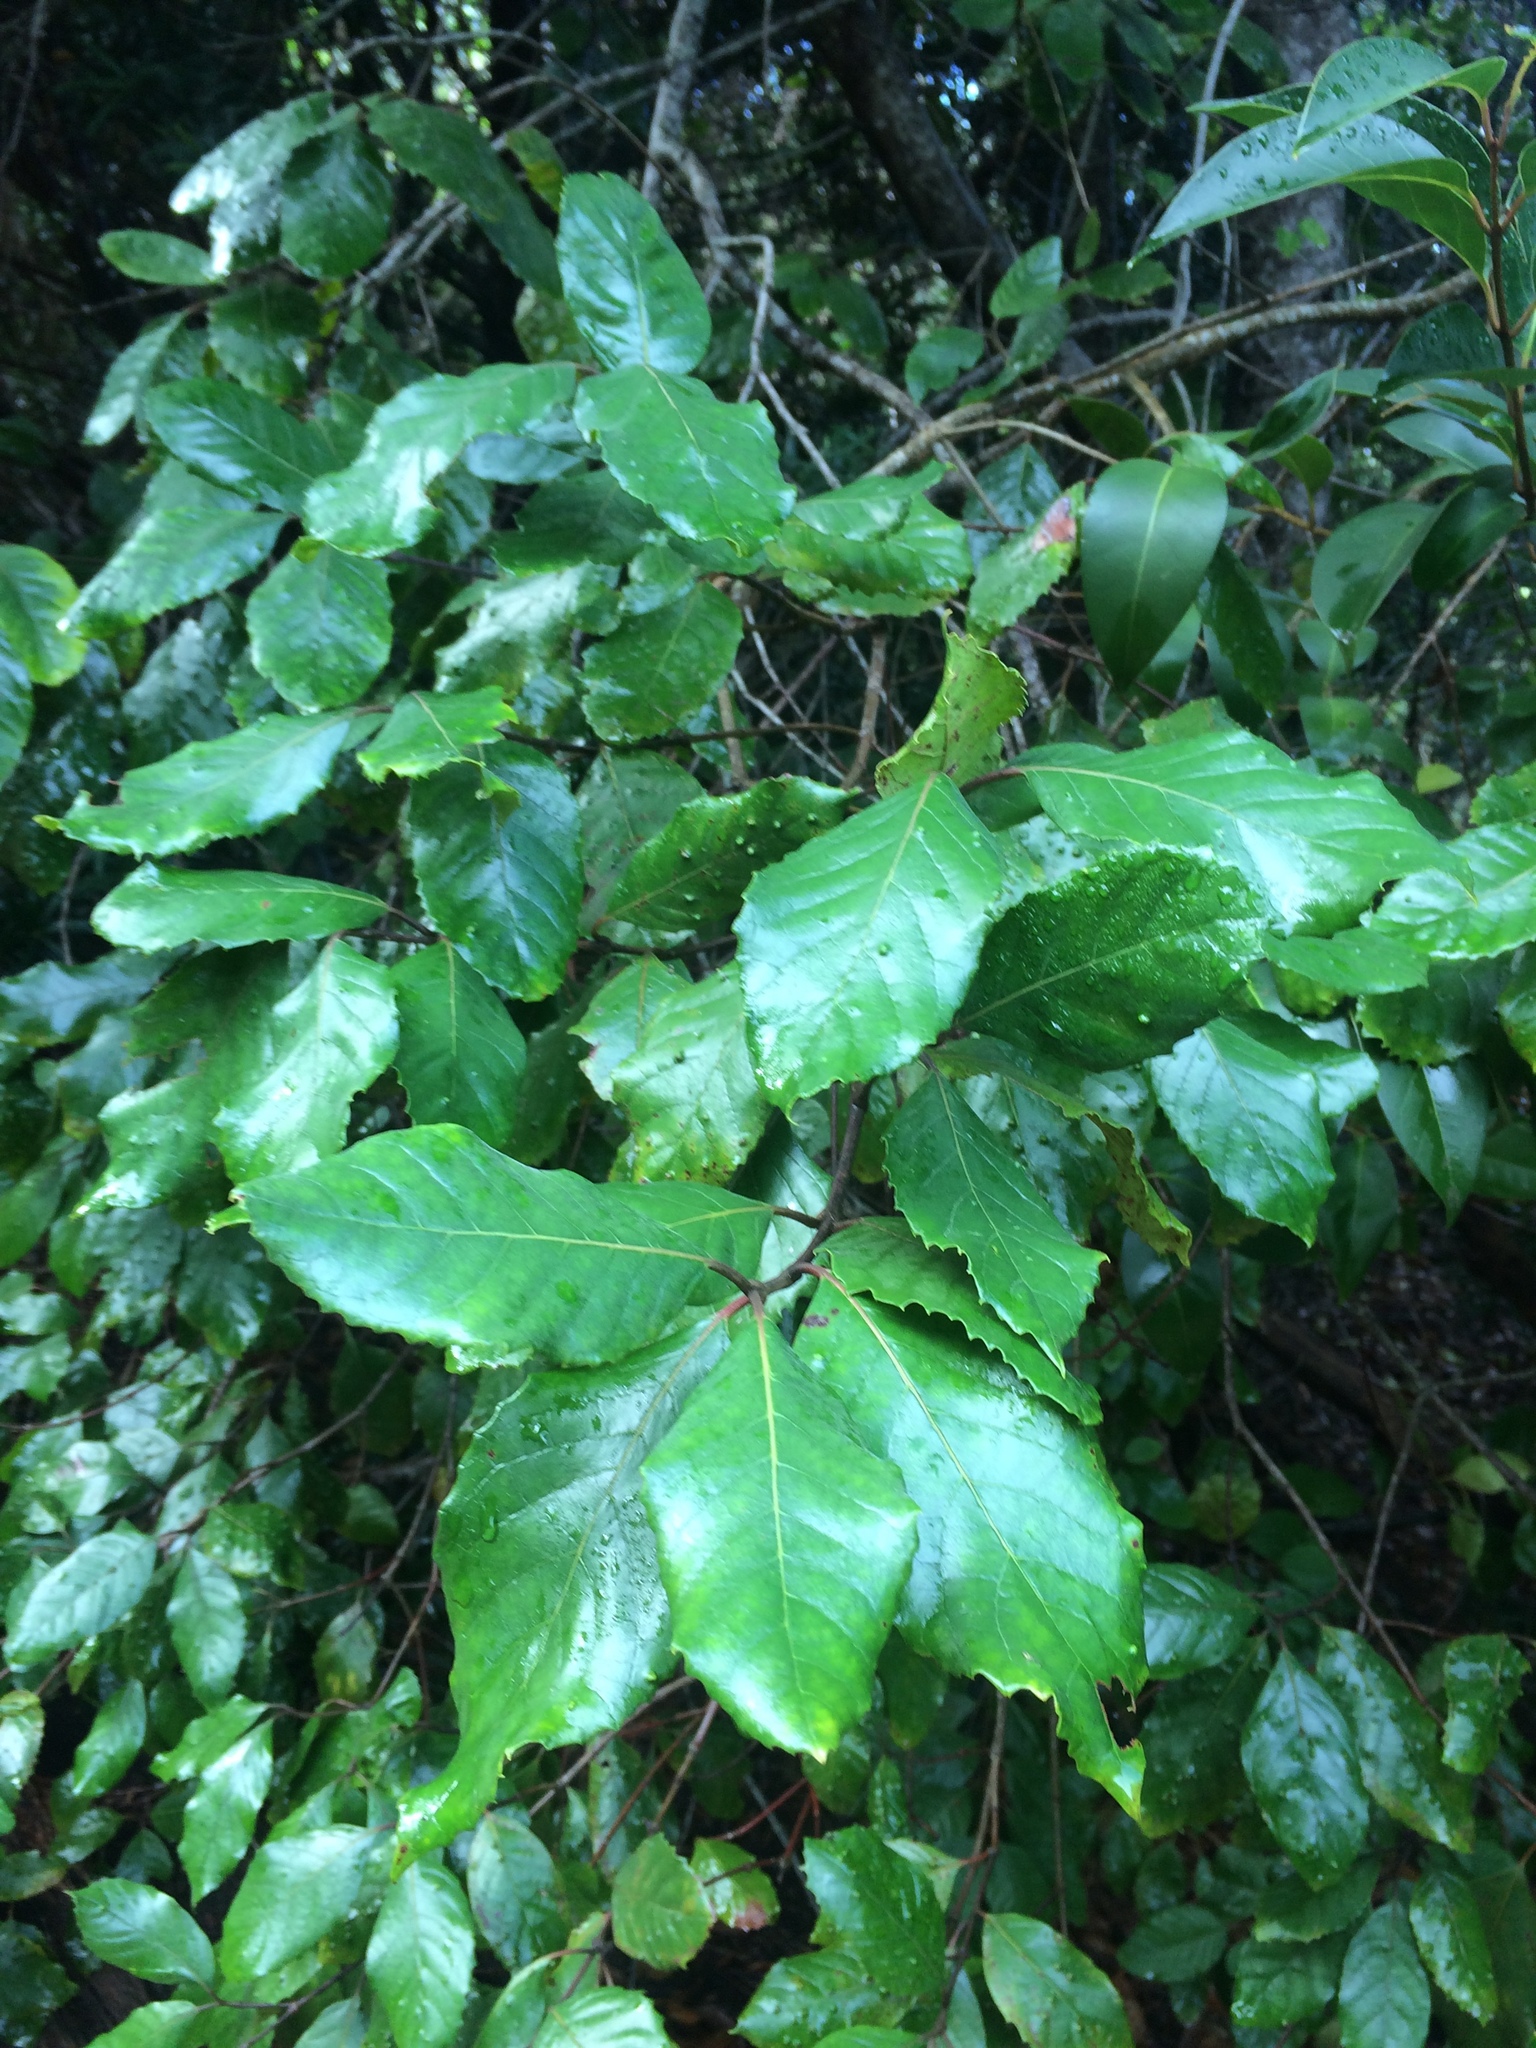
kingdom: Plantae
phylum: Tracheophyta
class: Magnoliopsida
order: Cornales
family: Curtisiaceae
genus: Curtisia
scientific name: Curtisia dentata
